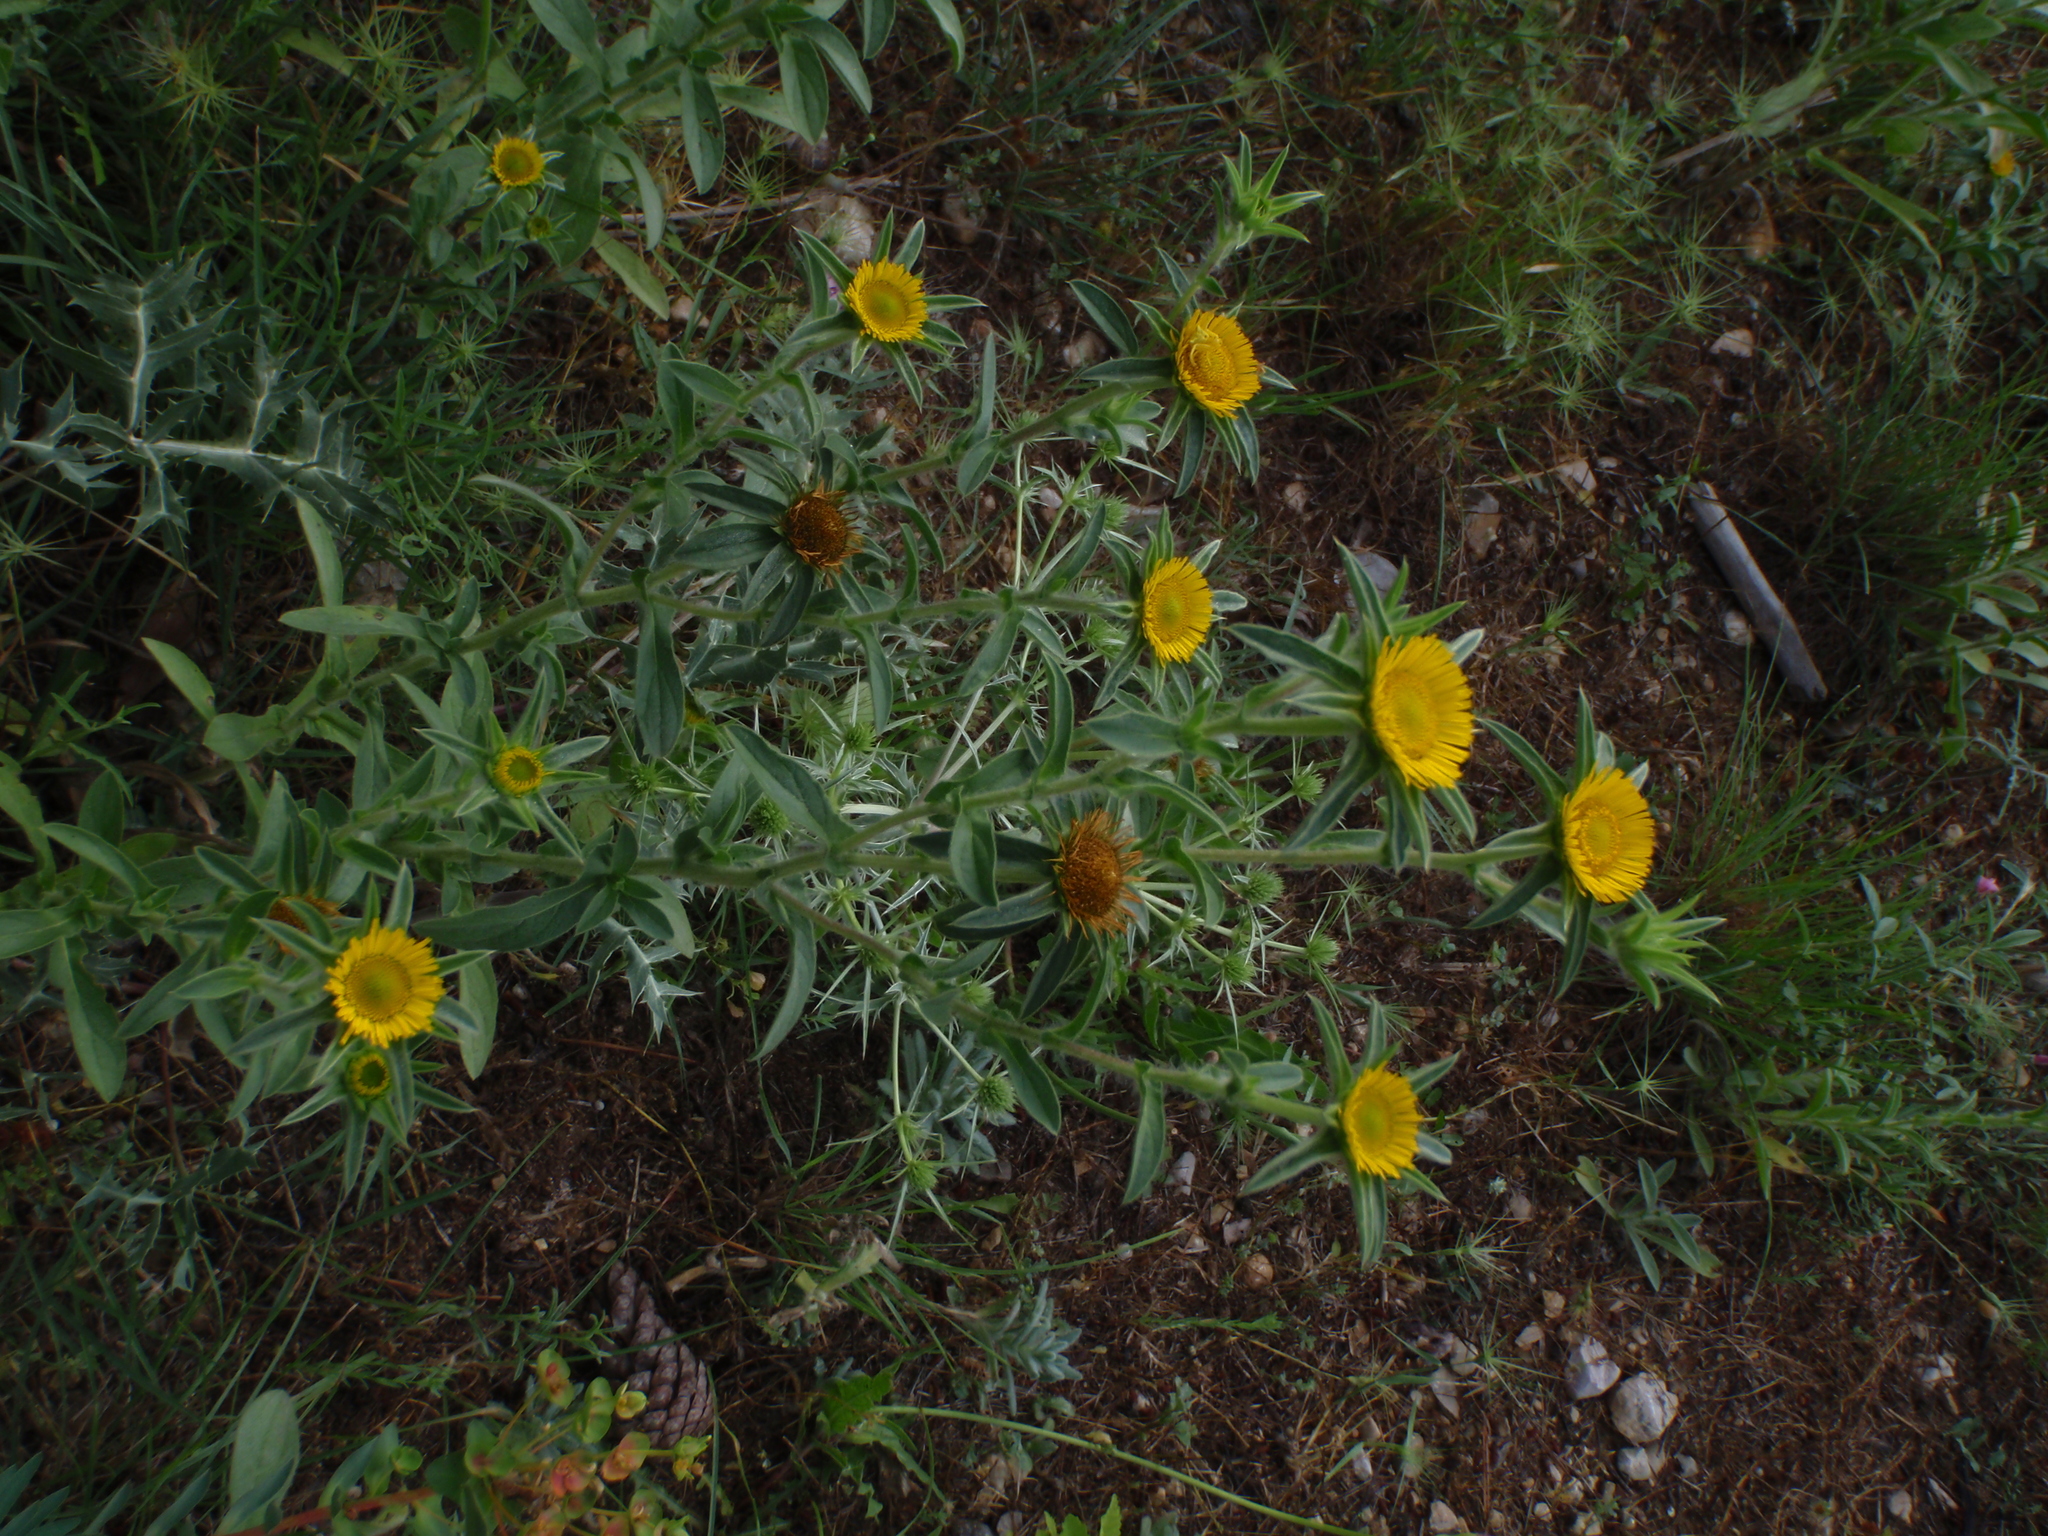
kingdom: Plantae
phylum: Tracheophyta
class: Magnoliopsida
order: Asterales
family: Asteraceae
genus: Pallenis
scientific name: Pallenis spinosa
